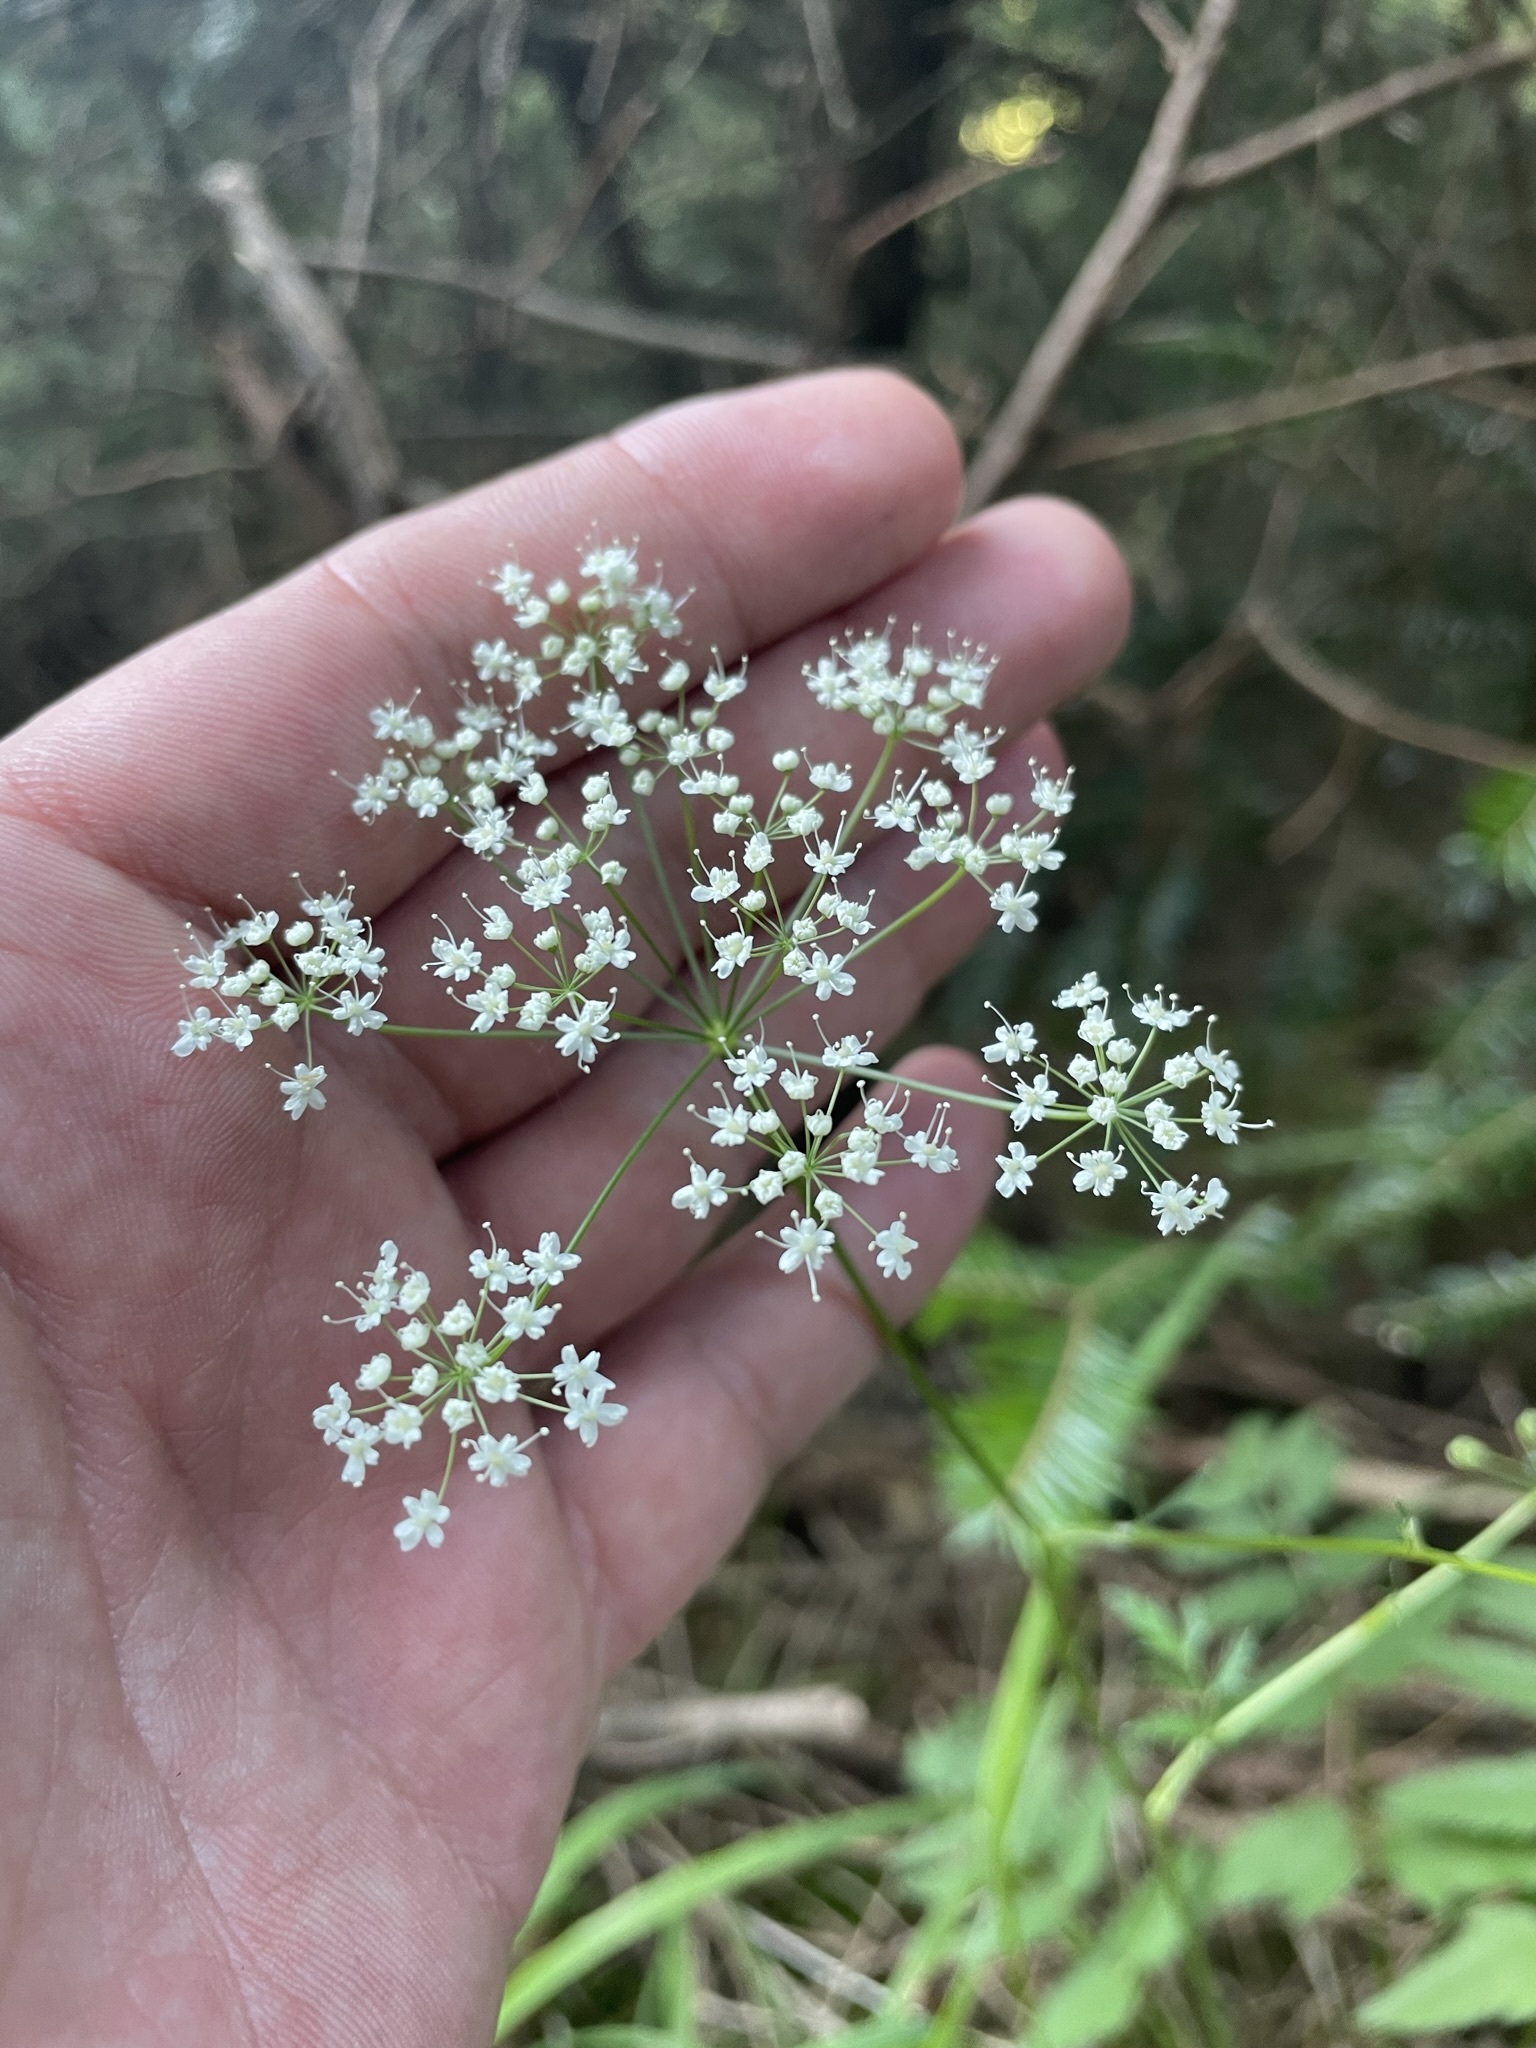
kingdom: Plantae
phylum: Tracheophyta
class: Magnoliopsida
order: Apiales
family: Apiaceae
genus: Pimpinella
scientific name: Pimpinella major
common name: Greater burnet-saxifrage
